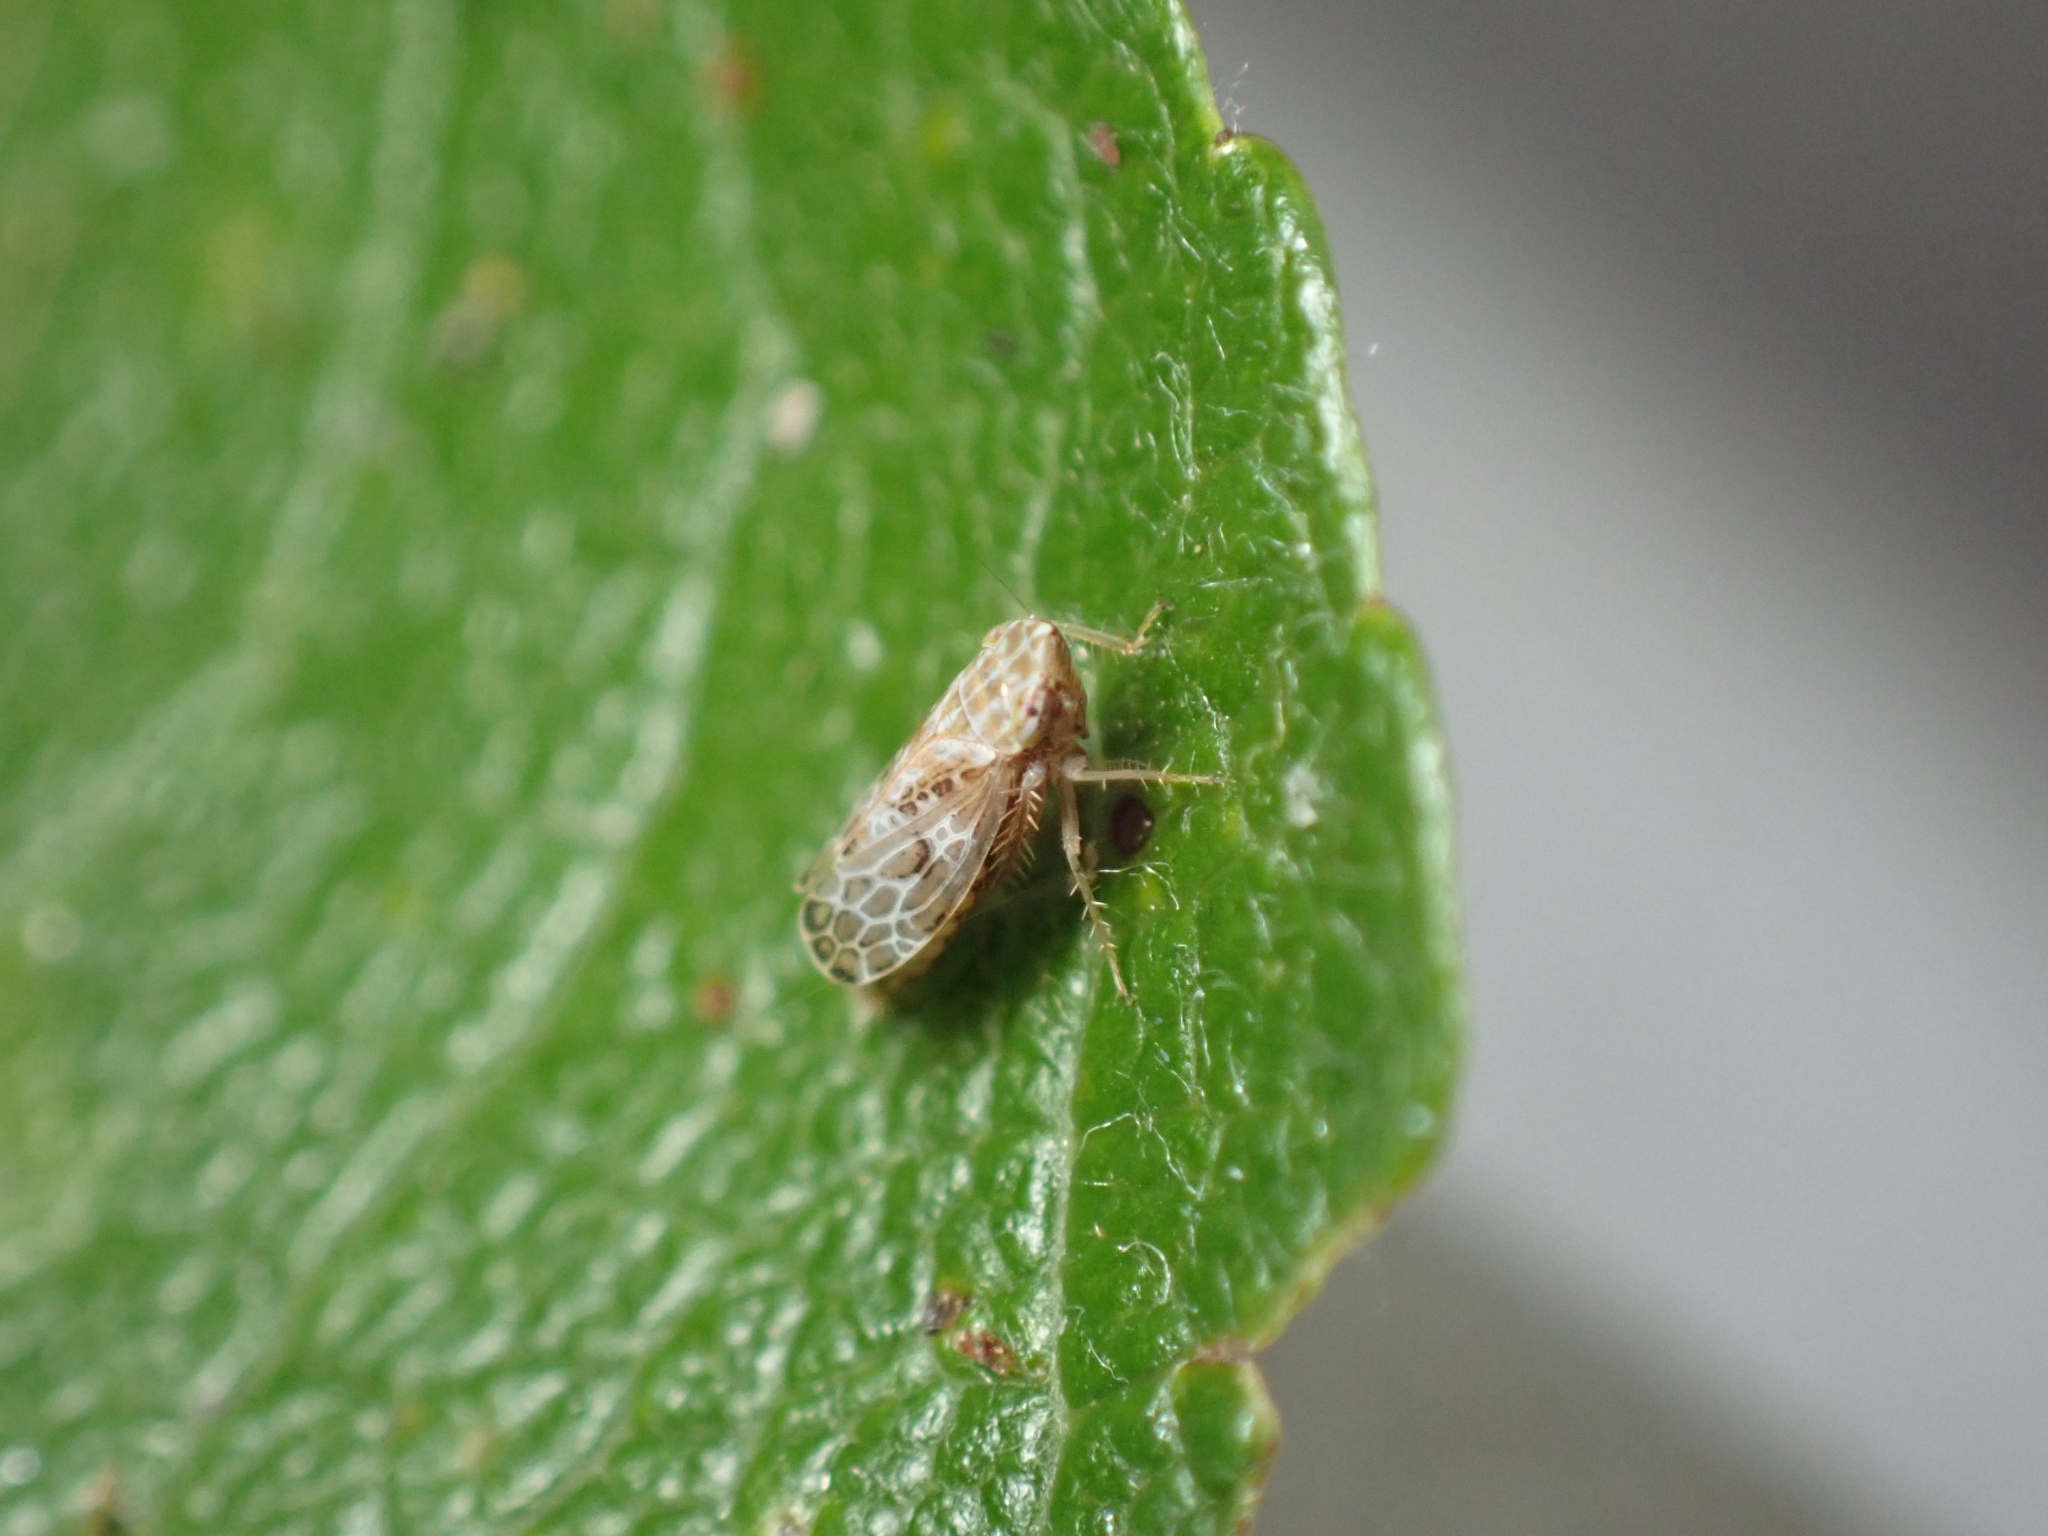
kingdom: Animalia
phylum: Arthropoda
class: Insecta
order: Hemiptera
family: Cicadellidae
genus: Errastunus
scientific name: Errastunus ocellaris
